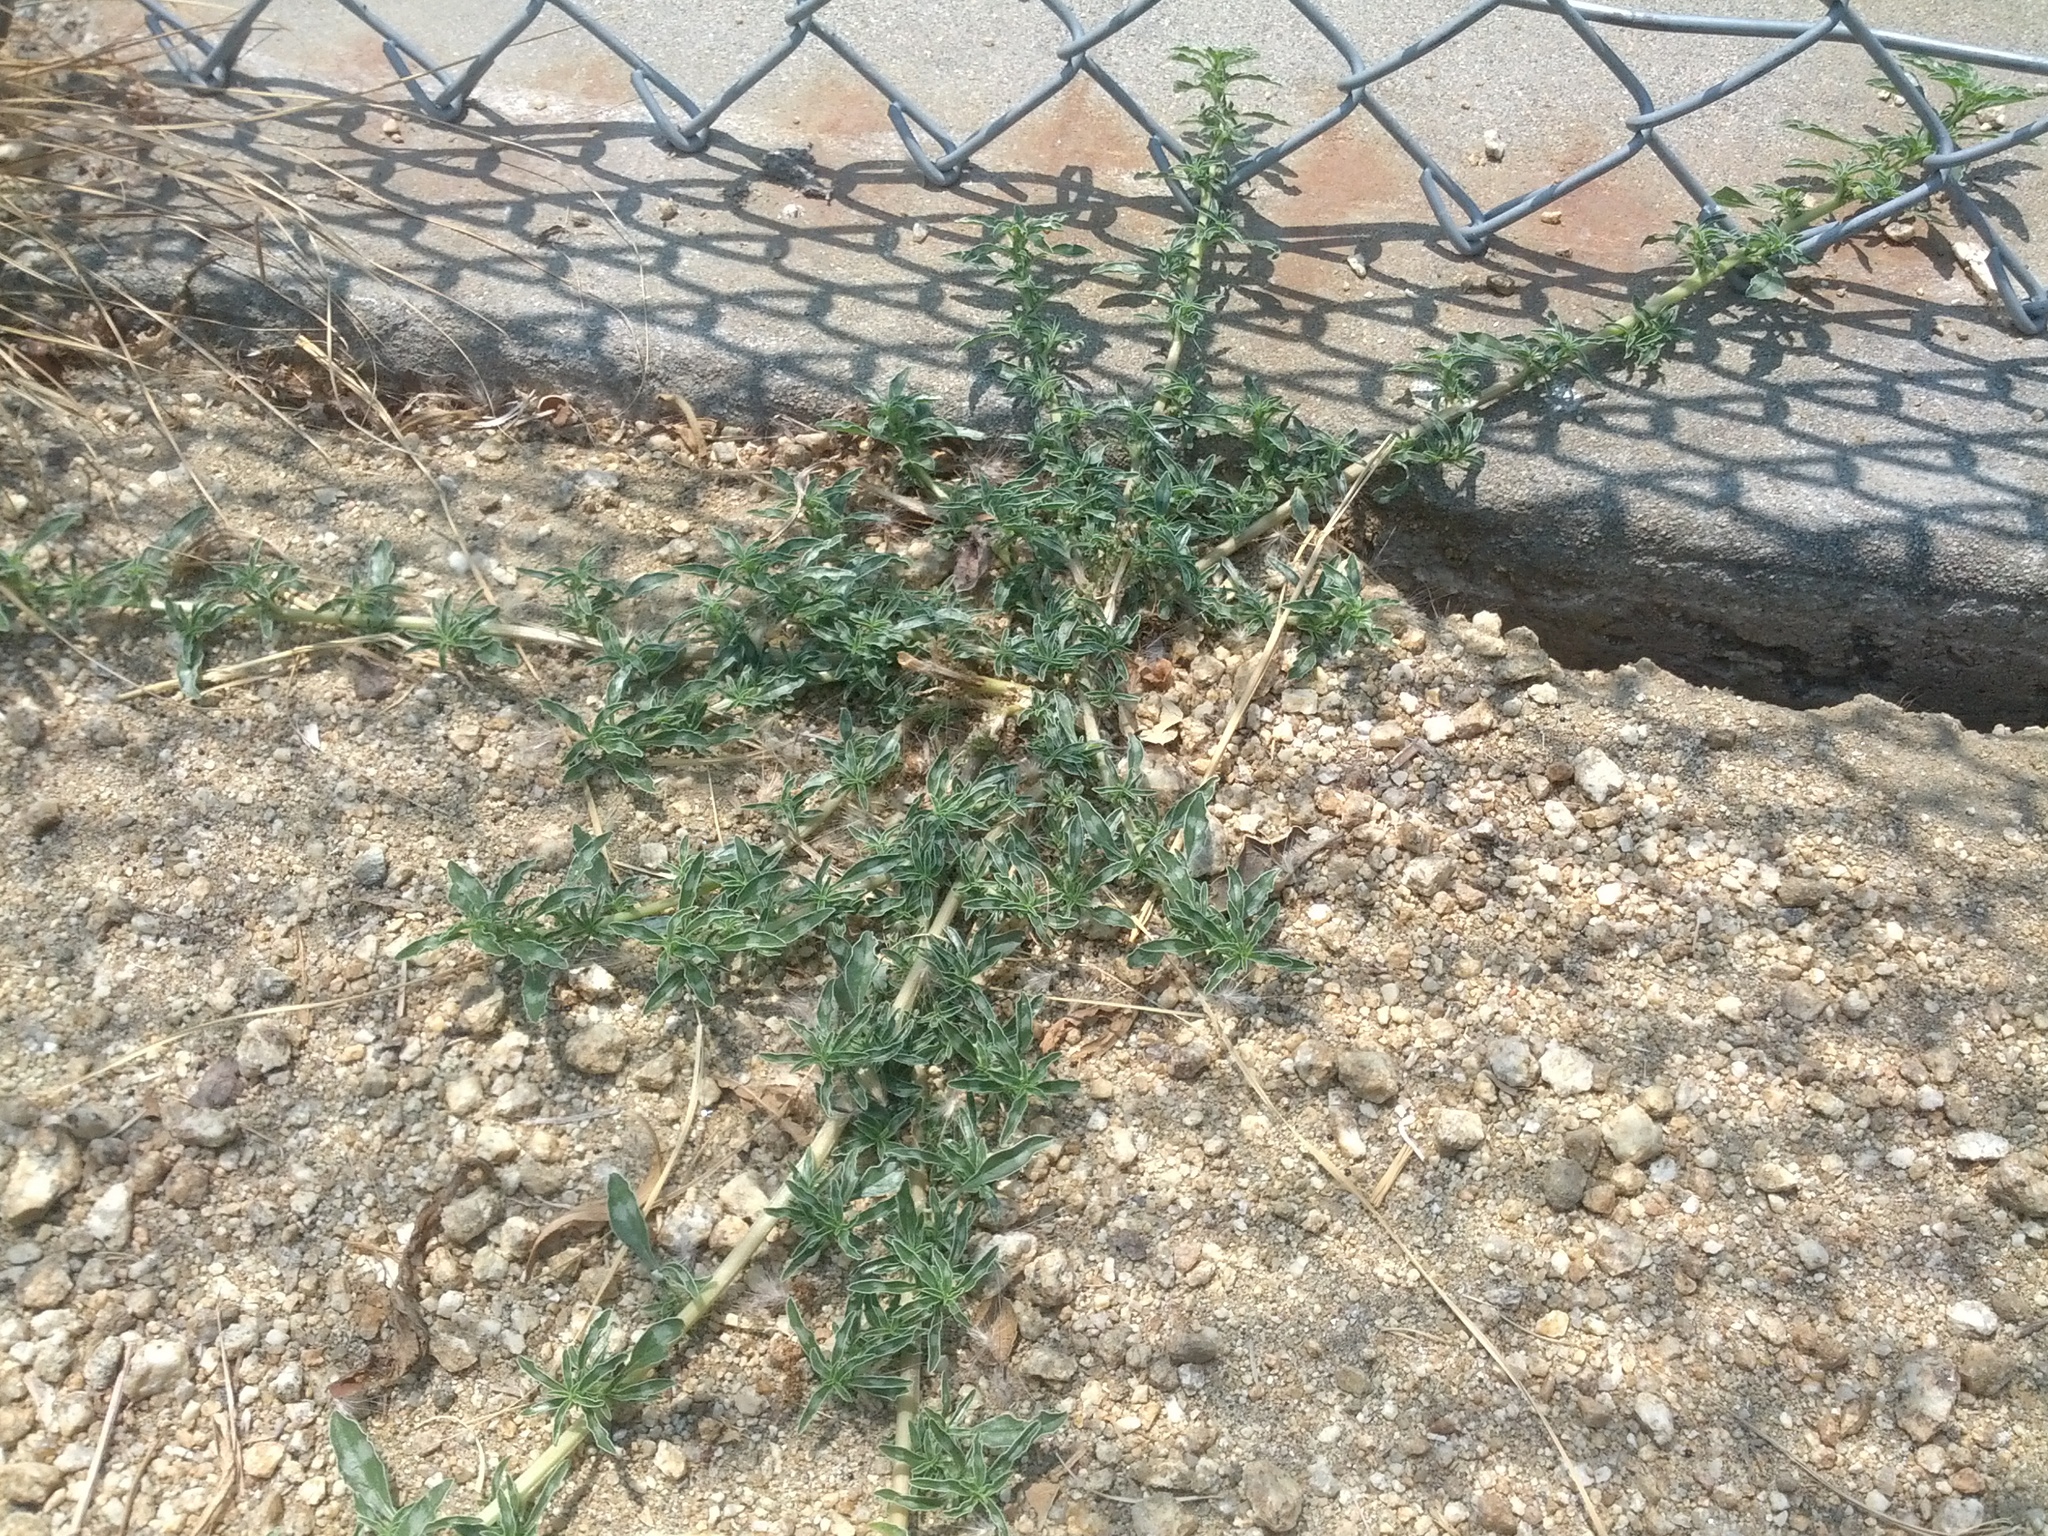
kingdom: Plantae
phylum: Tracheophyta
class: Magnoliopsida
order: Caryophyllales
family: Amaranthaceae
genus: Amaranthus
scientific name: Amaranthus blitoides
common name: Prostrate pigweed
